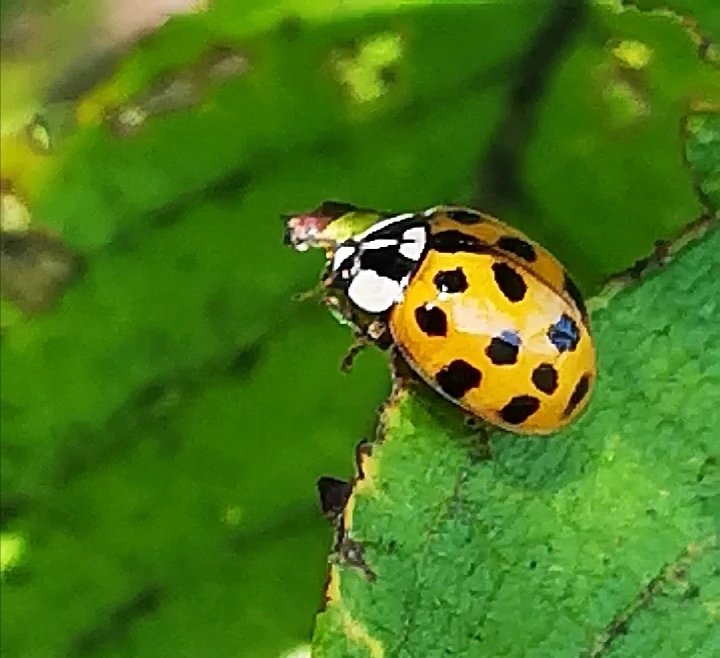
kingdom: Animalia
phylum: Arthropoda
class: Insecta
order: Coleoptera
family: Coccinellidae
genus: Harmonia
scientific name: Harmonia axyridis
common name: Harlequin ladybird
